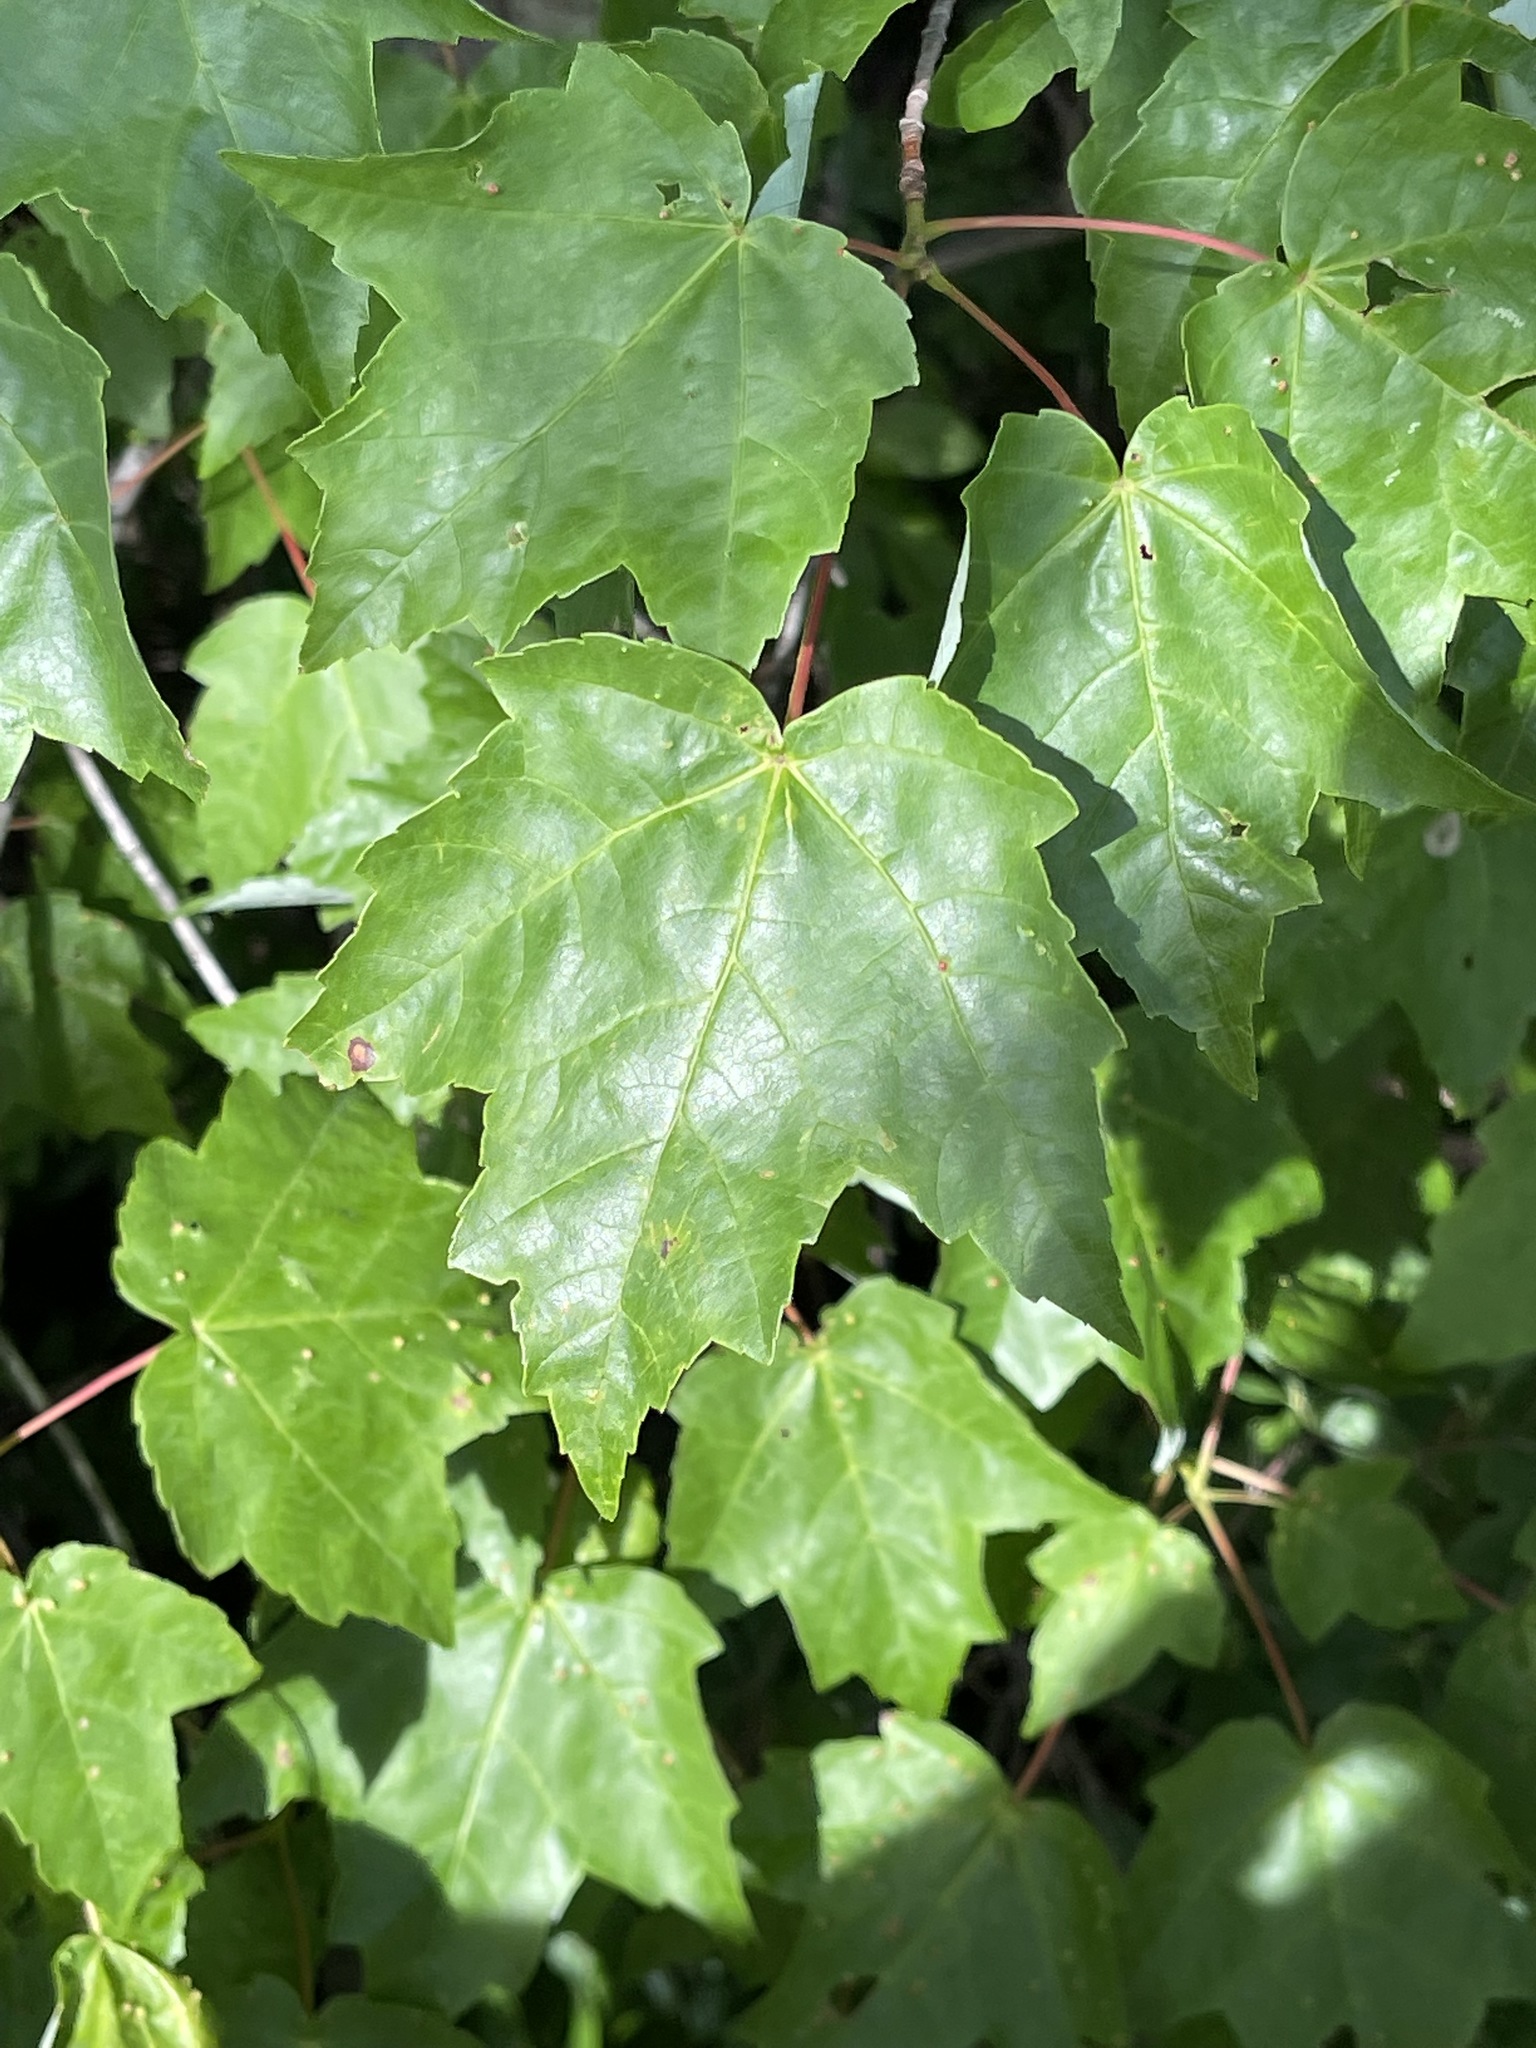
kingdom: Plantae
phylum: Tracheophyta
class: Magnoliopsida
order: Sapindales
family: Sapindaceae
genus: Acer
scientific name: Acer rubrum
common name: Red maple
